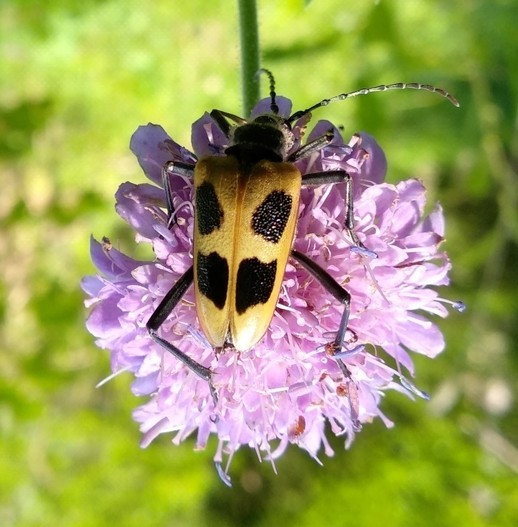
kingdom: Animalia
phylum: Arthropoda
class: Insecta
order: Coleoptera
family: Cerambycidae
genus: Pachyta
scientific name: Pachyta quadrimaculata
